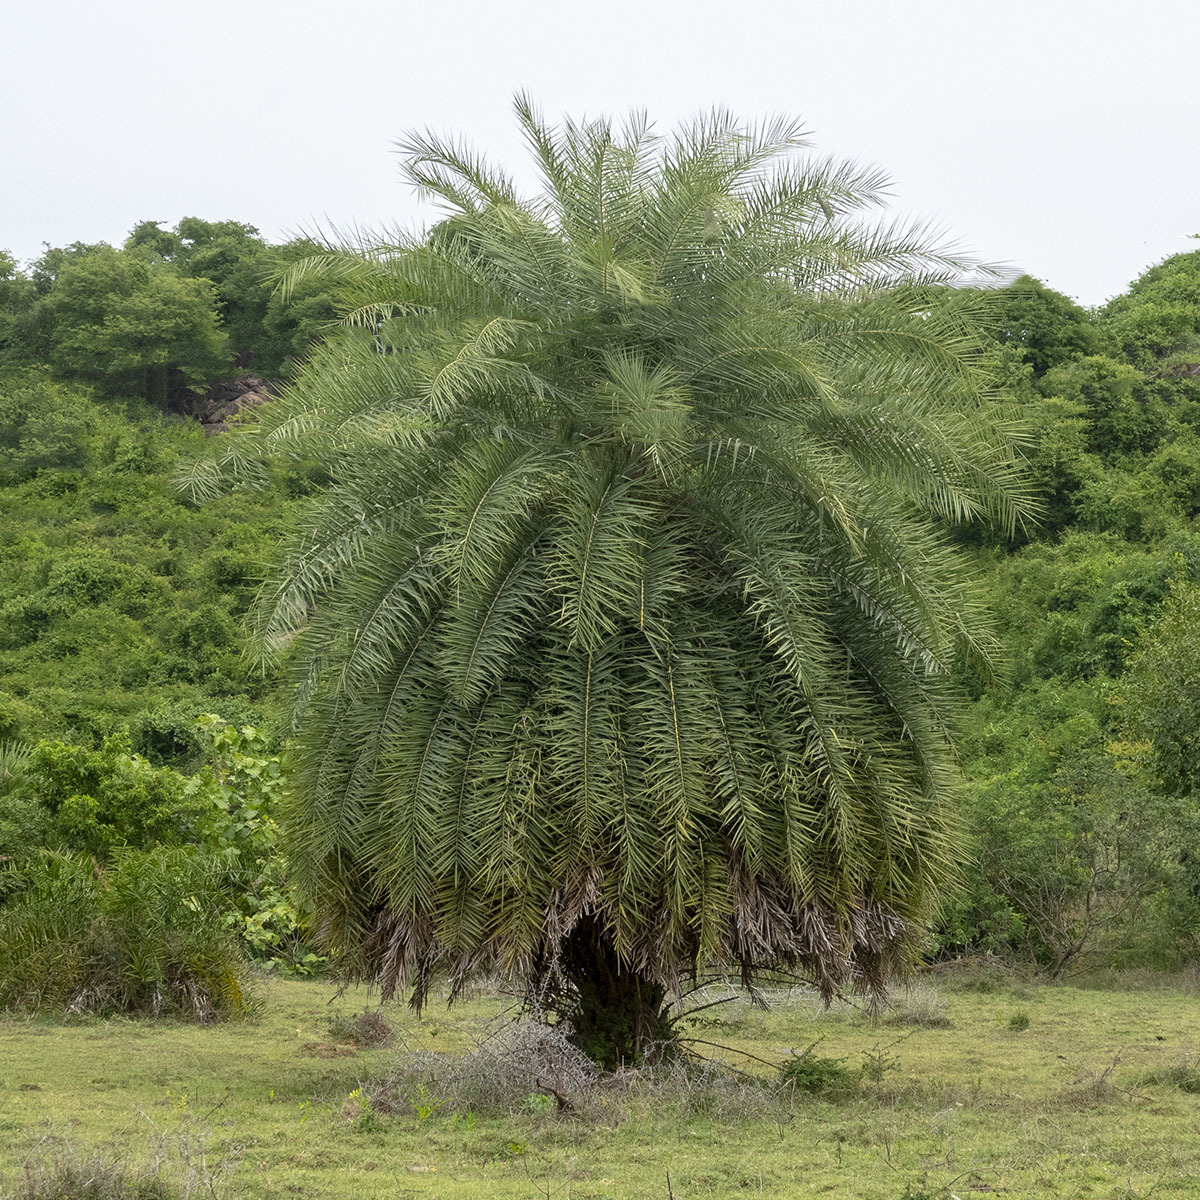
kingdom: Plantae
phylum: Tracheophyta
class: Liliopsida
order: Arecales
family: Arecaceae
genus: Phoenix
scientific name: Phoenix pusilla
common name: Flour palm
